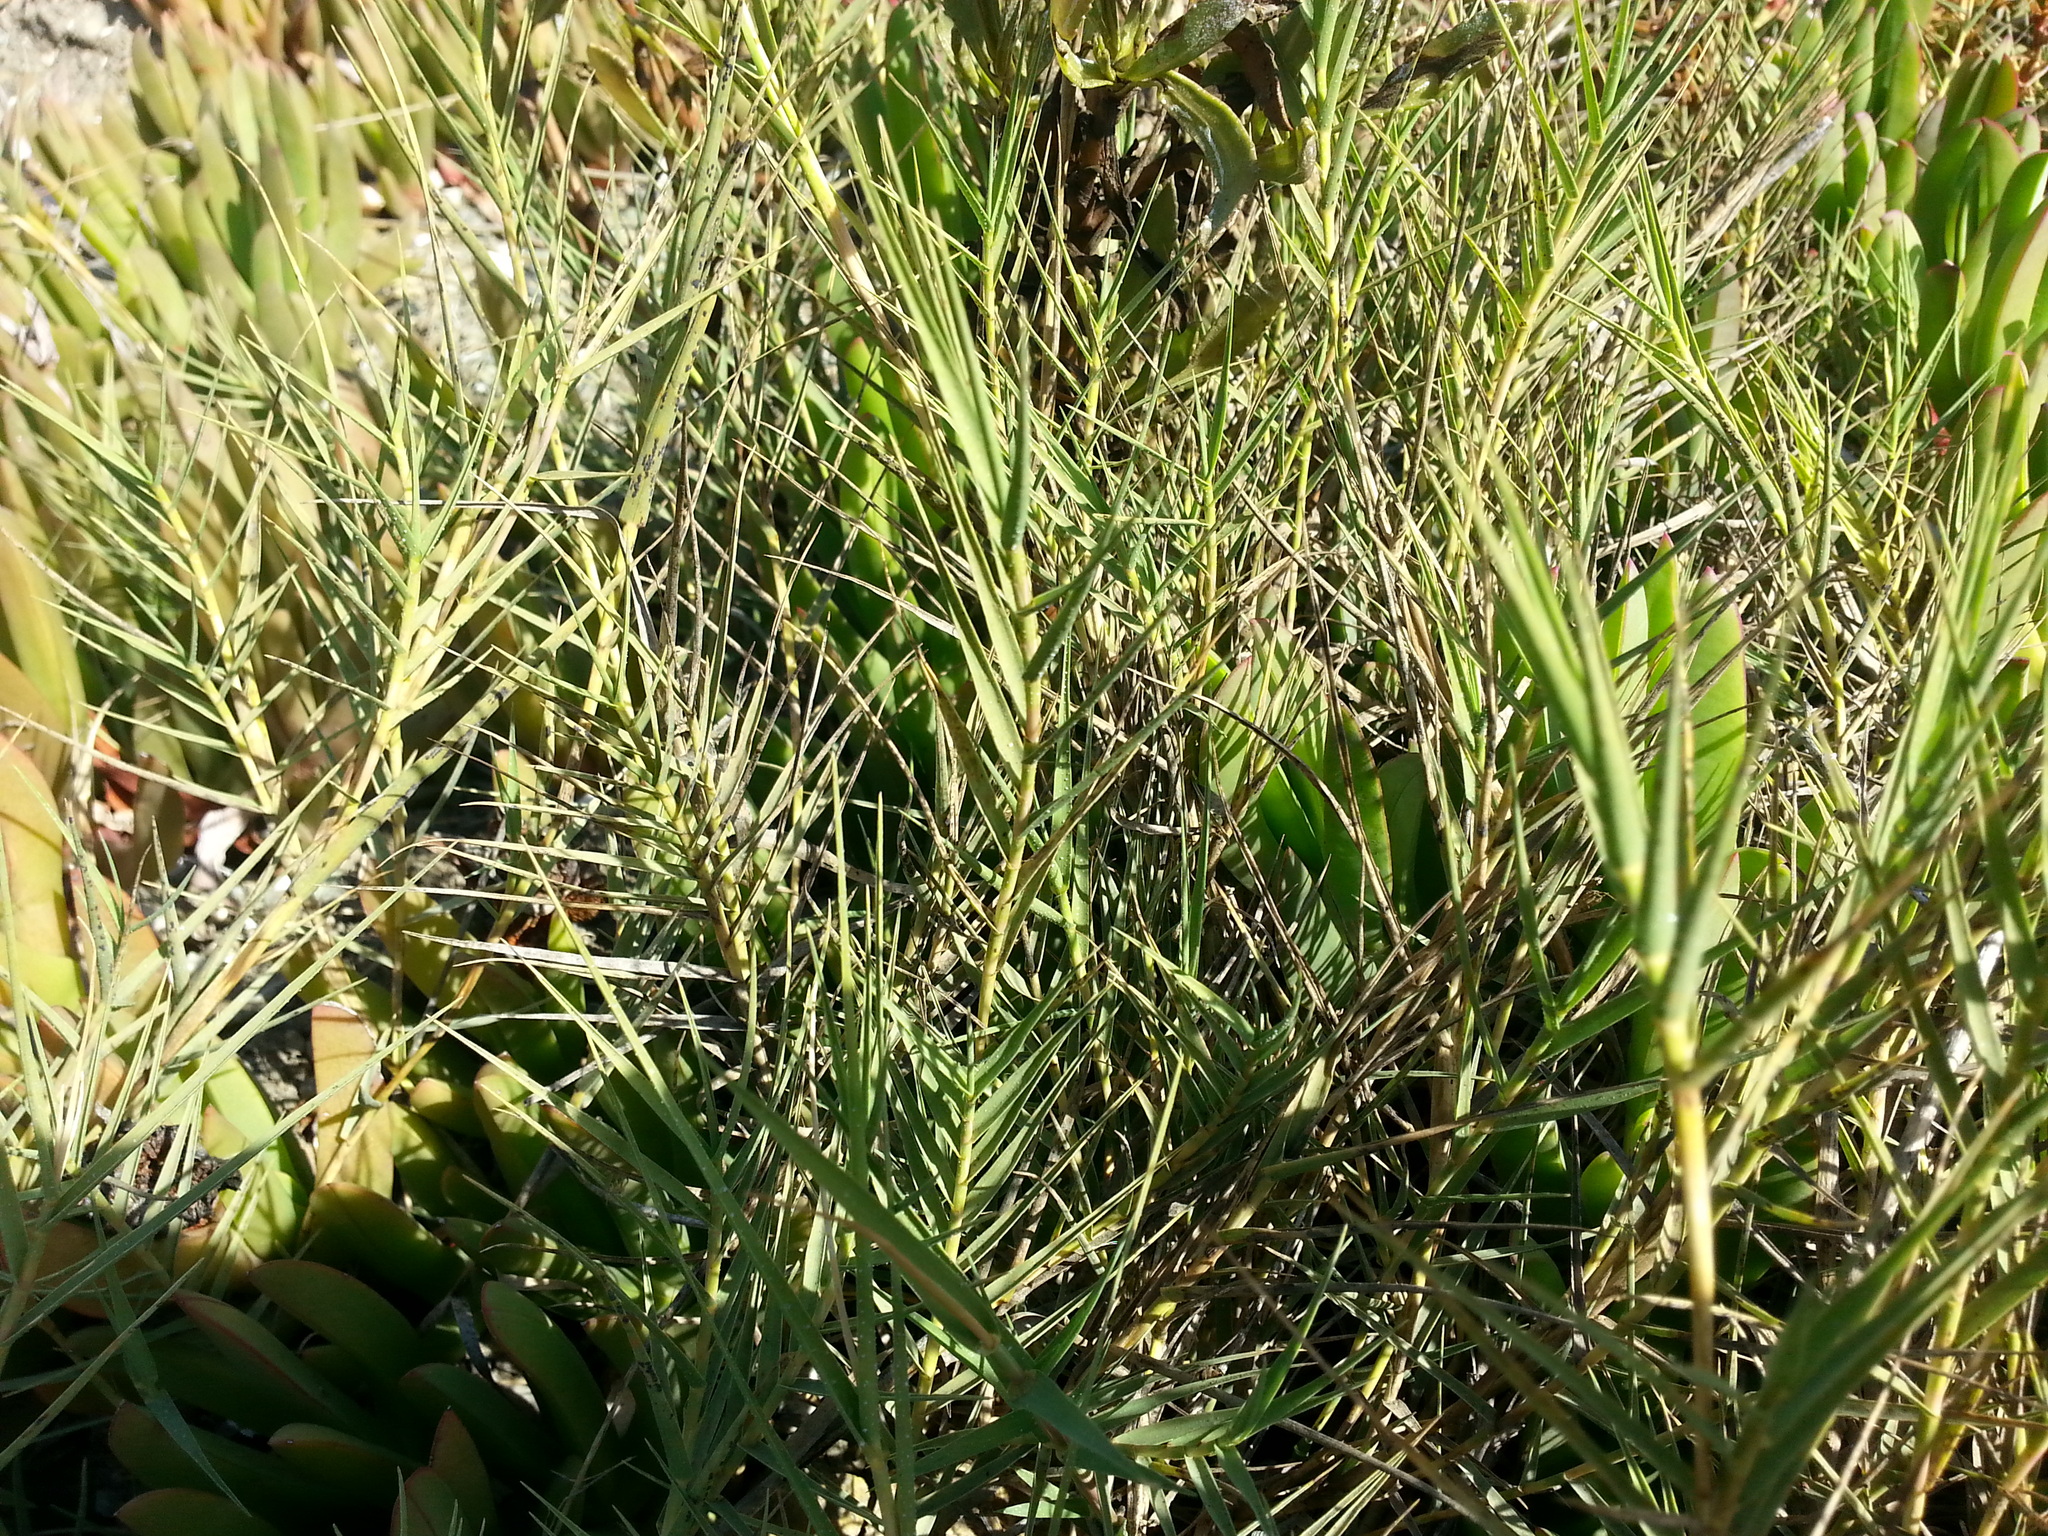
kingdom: Plantae
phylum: Tracheophyta
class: Liliopsida
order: Poales
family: Poaceae
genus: Distichlis
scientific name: Distichlis spicata
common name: Saltgrass
